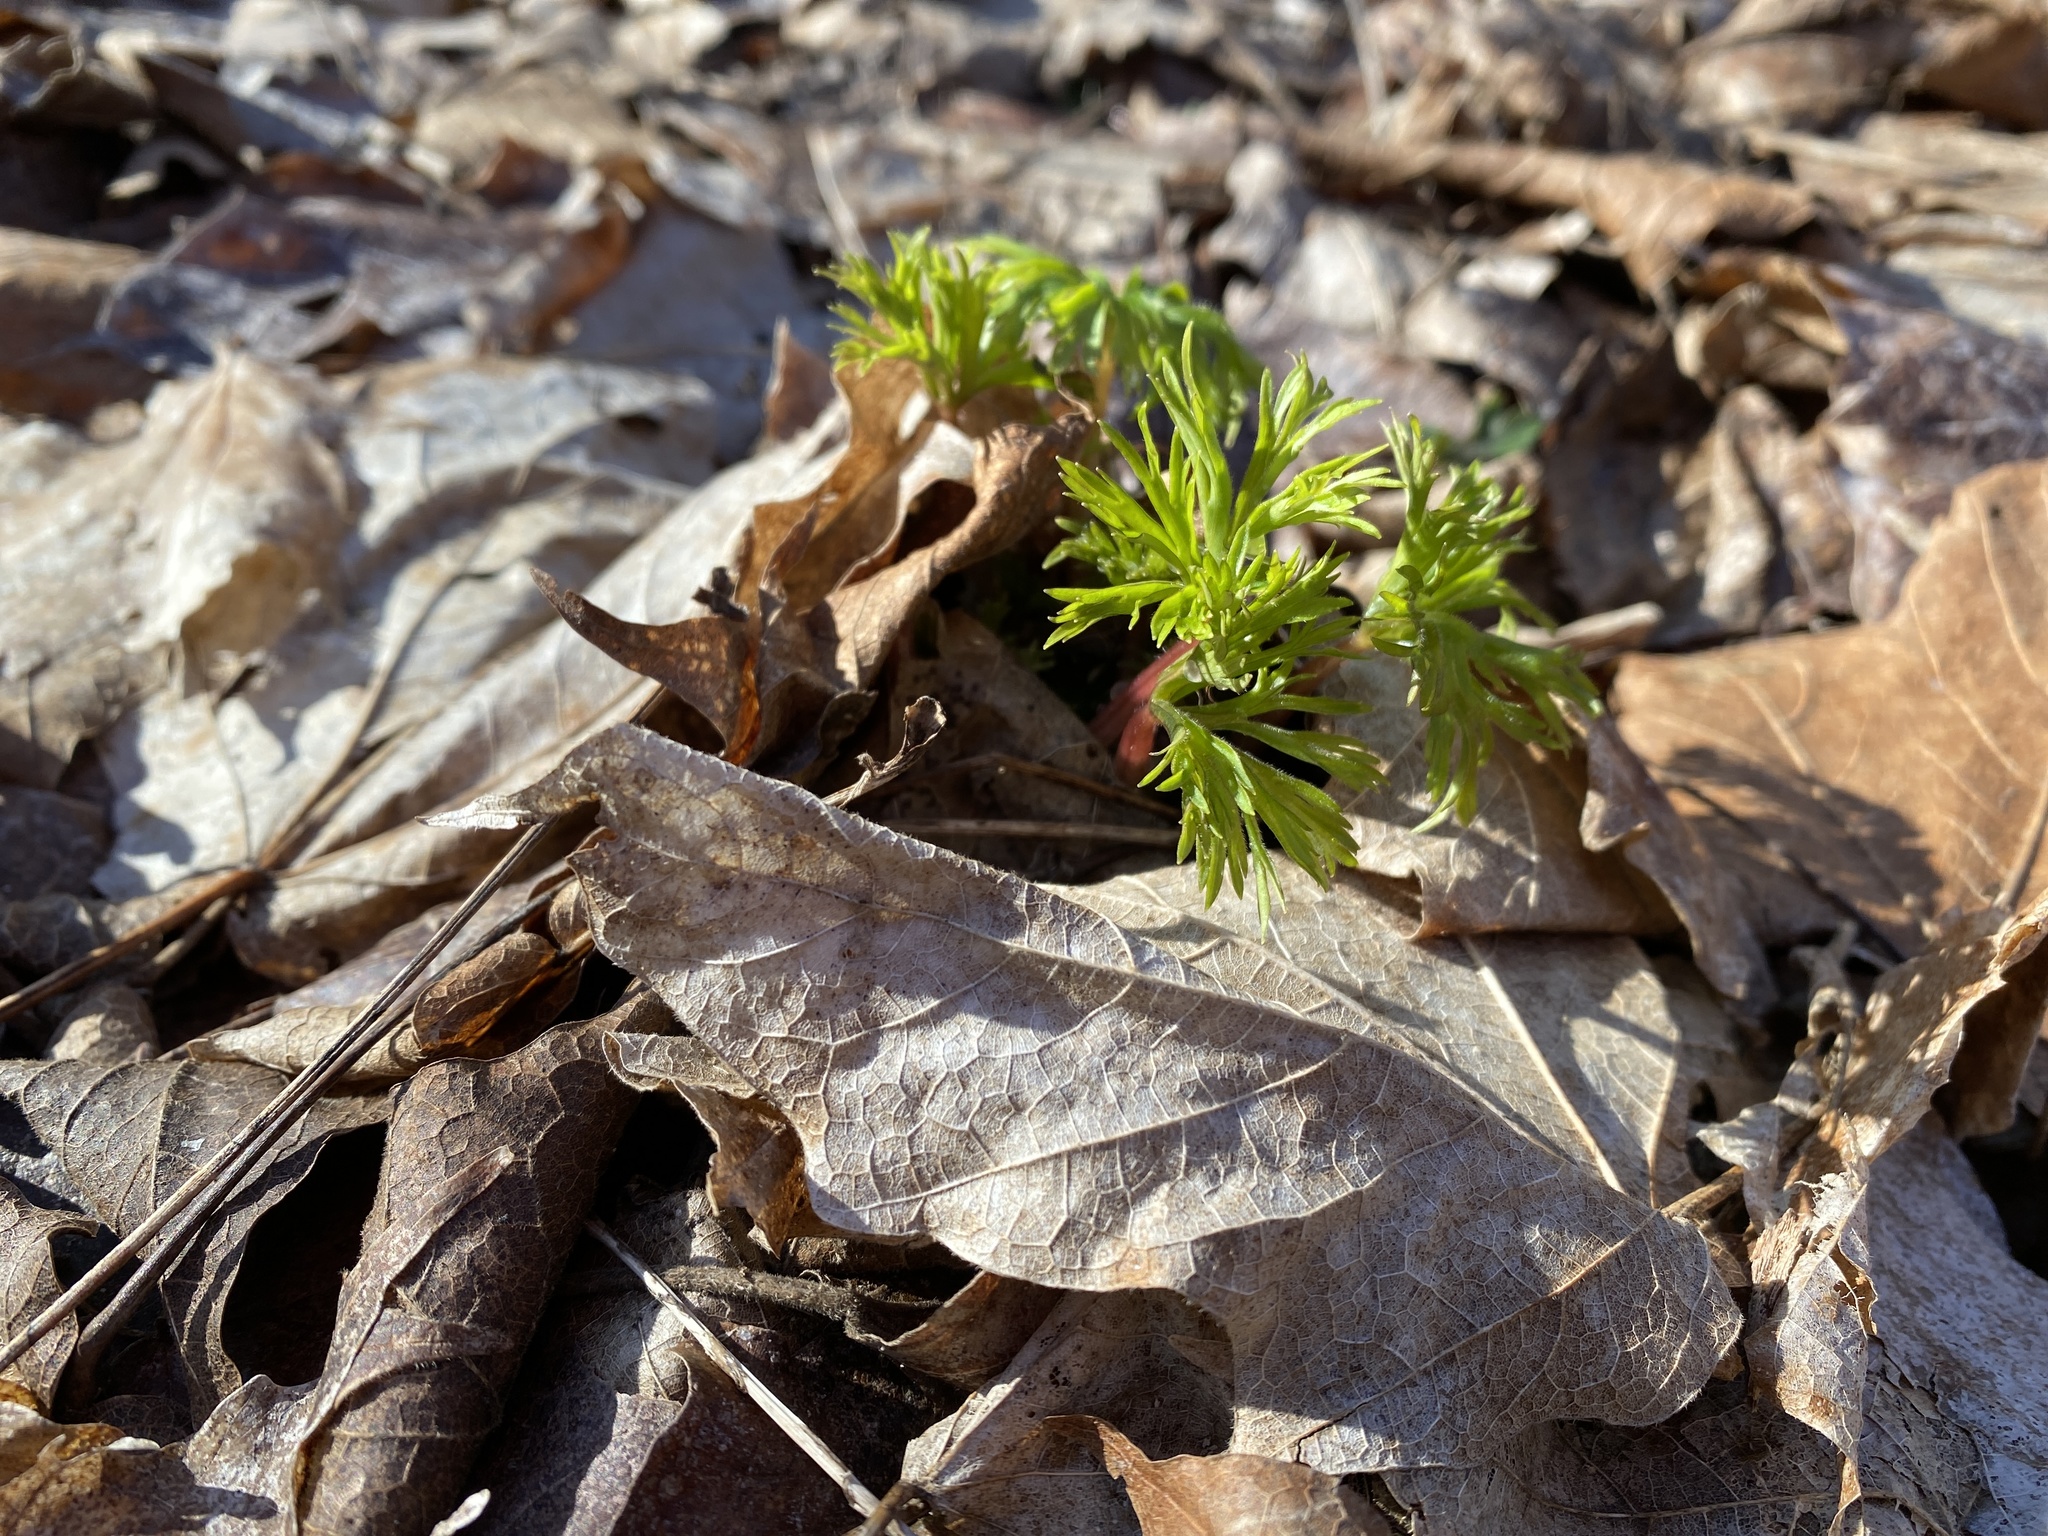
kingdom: Plantae
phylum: Tracheophyta
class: Magnoliopsida
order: Ranunculales
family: Ranunculaceae
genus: Delphinium
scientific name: Delphinium tricorne
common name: Dwarf larkspur
